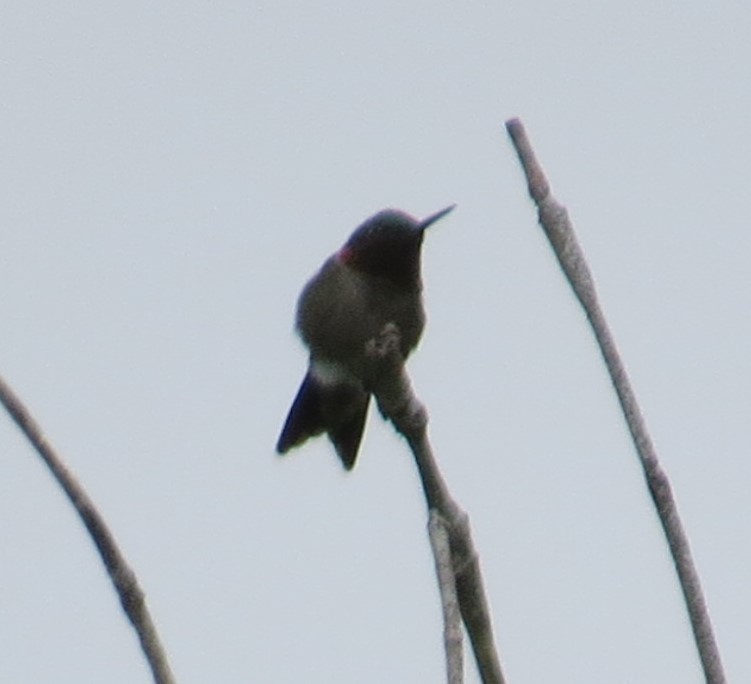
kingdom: Animalia
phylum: Chordata
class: Aves
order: Apodiformes
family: Trochilidae
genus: Archilochus
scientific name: Archilochus colubris
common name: Ruby-throated hummingbird
